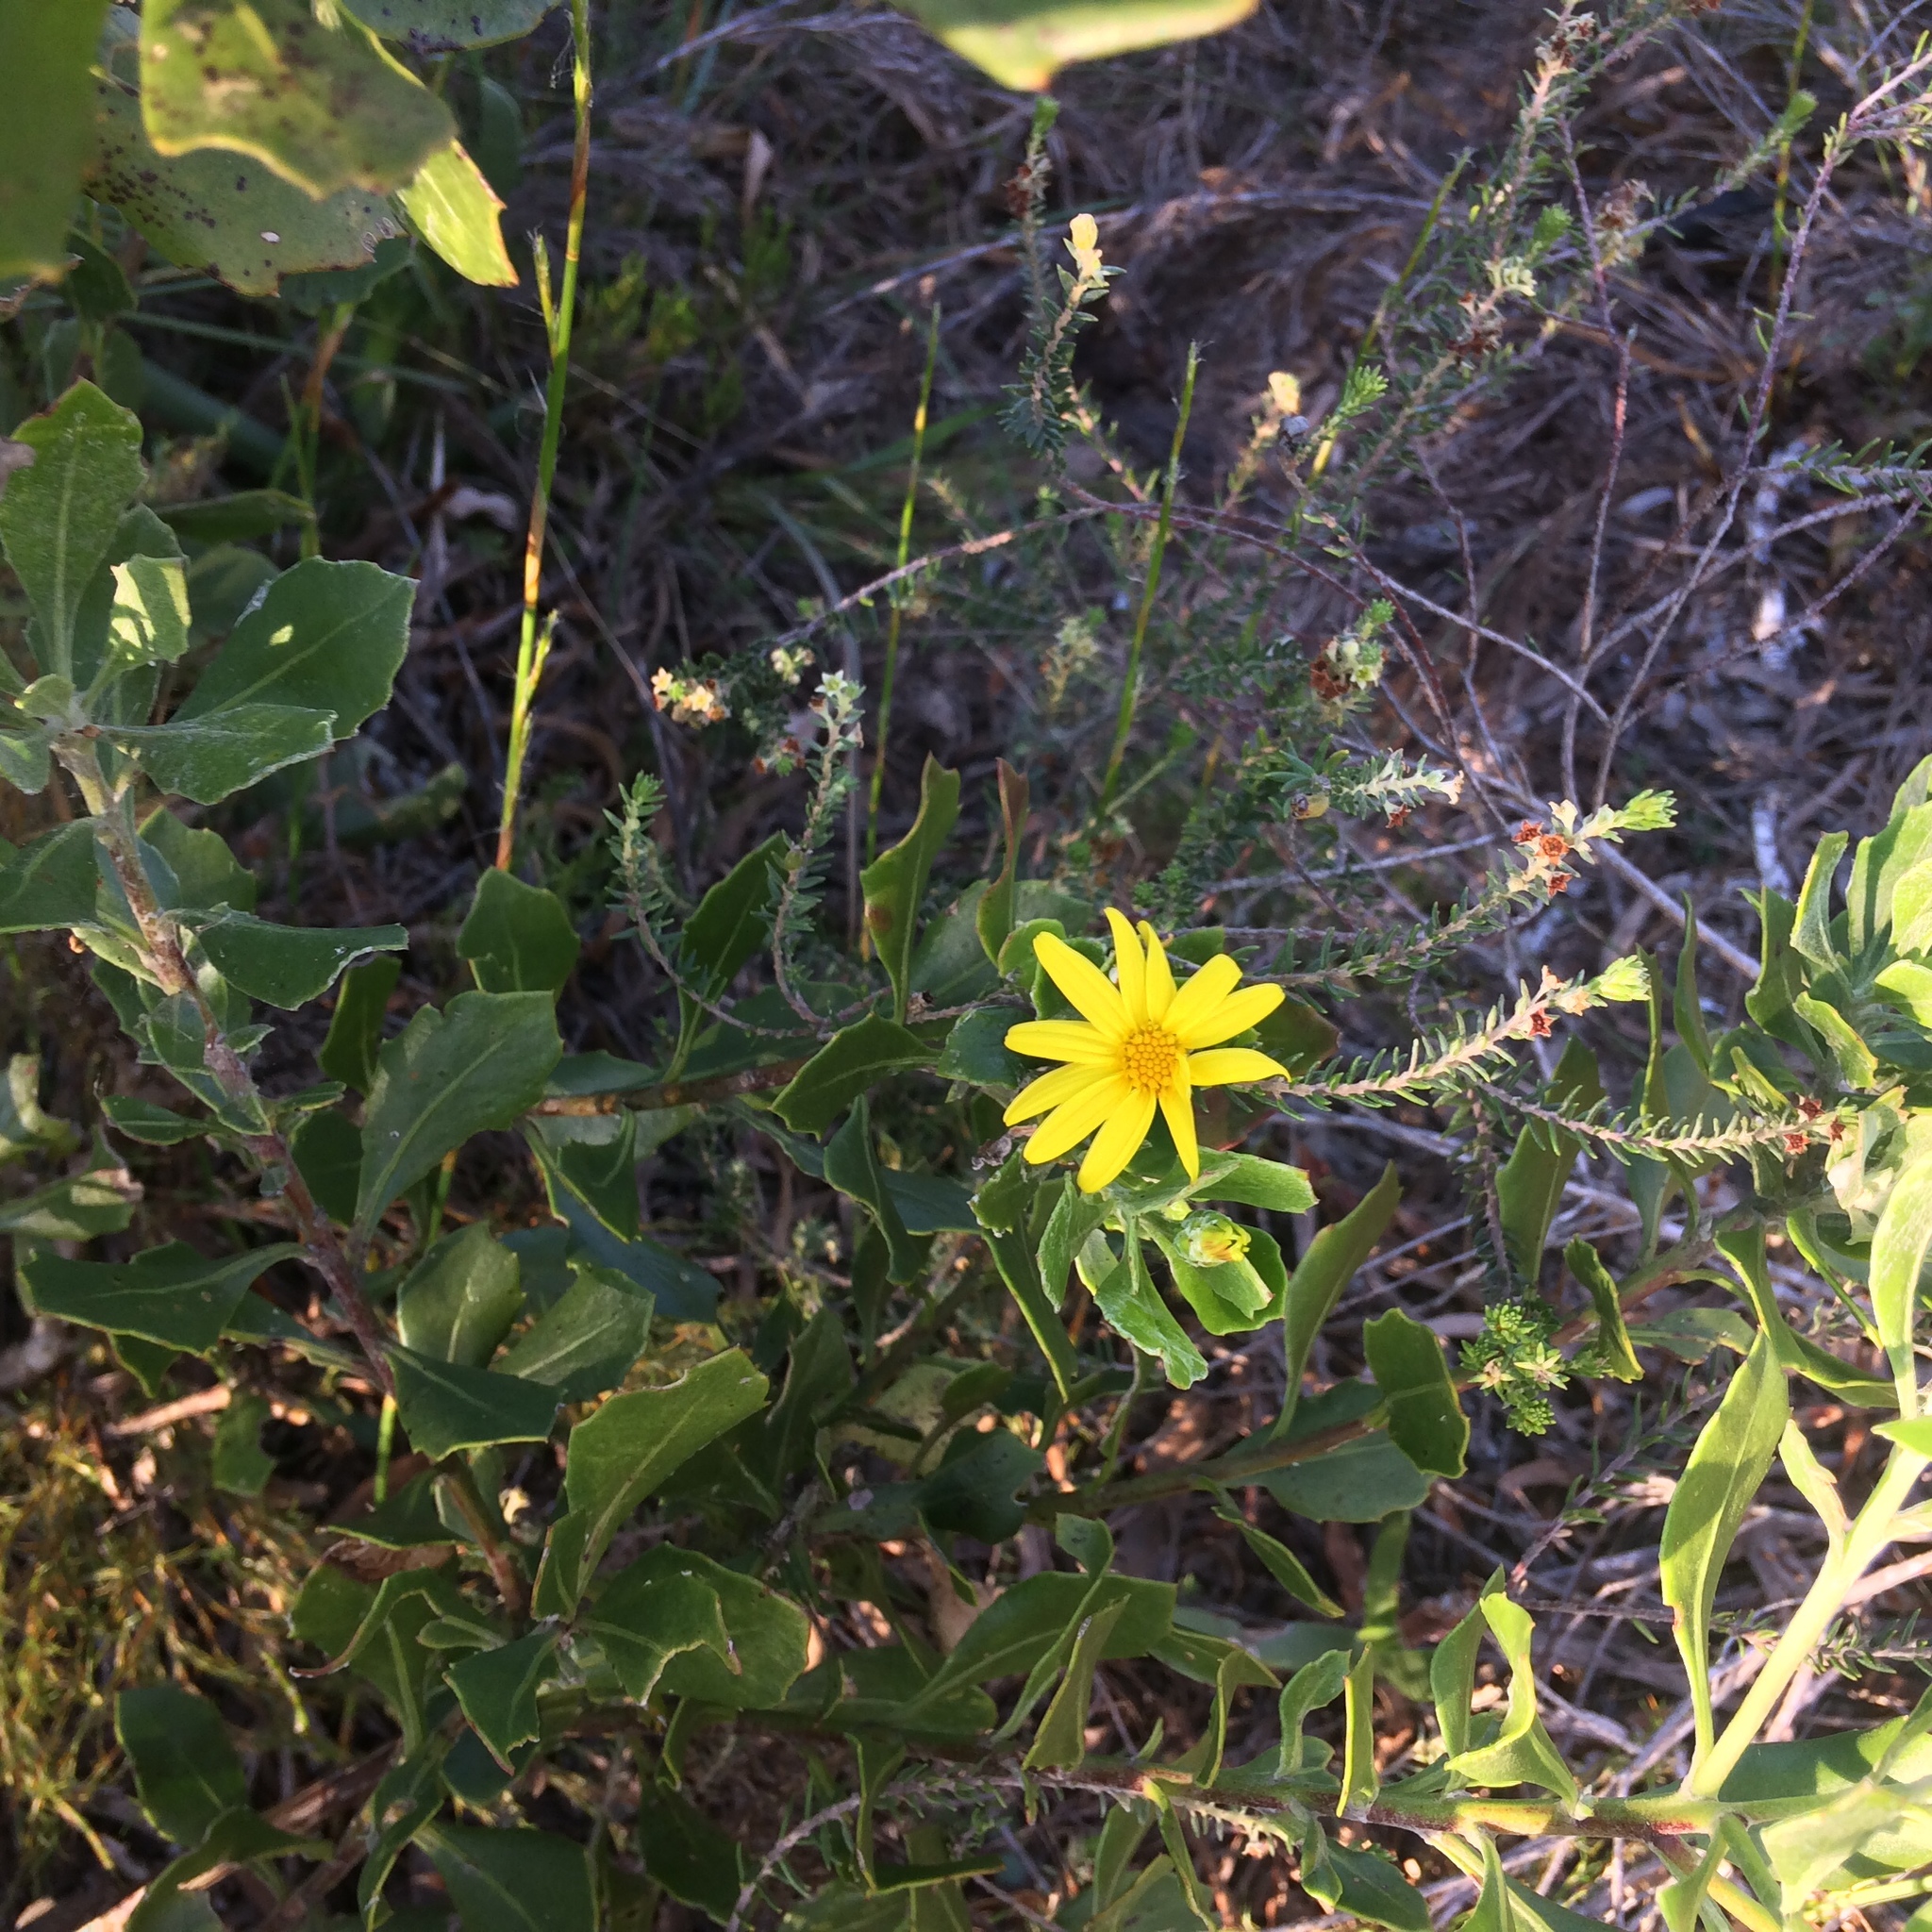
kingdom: Plantae
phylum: Tracheophyta
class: Magnoliopsida
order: Asterales
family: Asteraceae
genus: Osteospermum
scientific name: Osteospermum moniliferum
